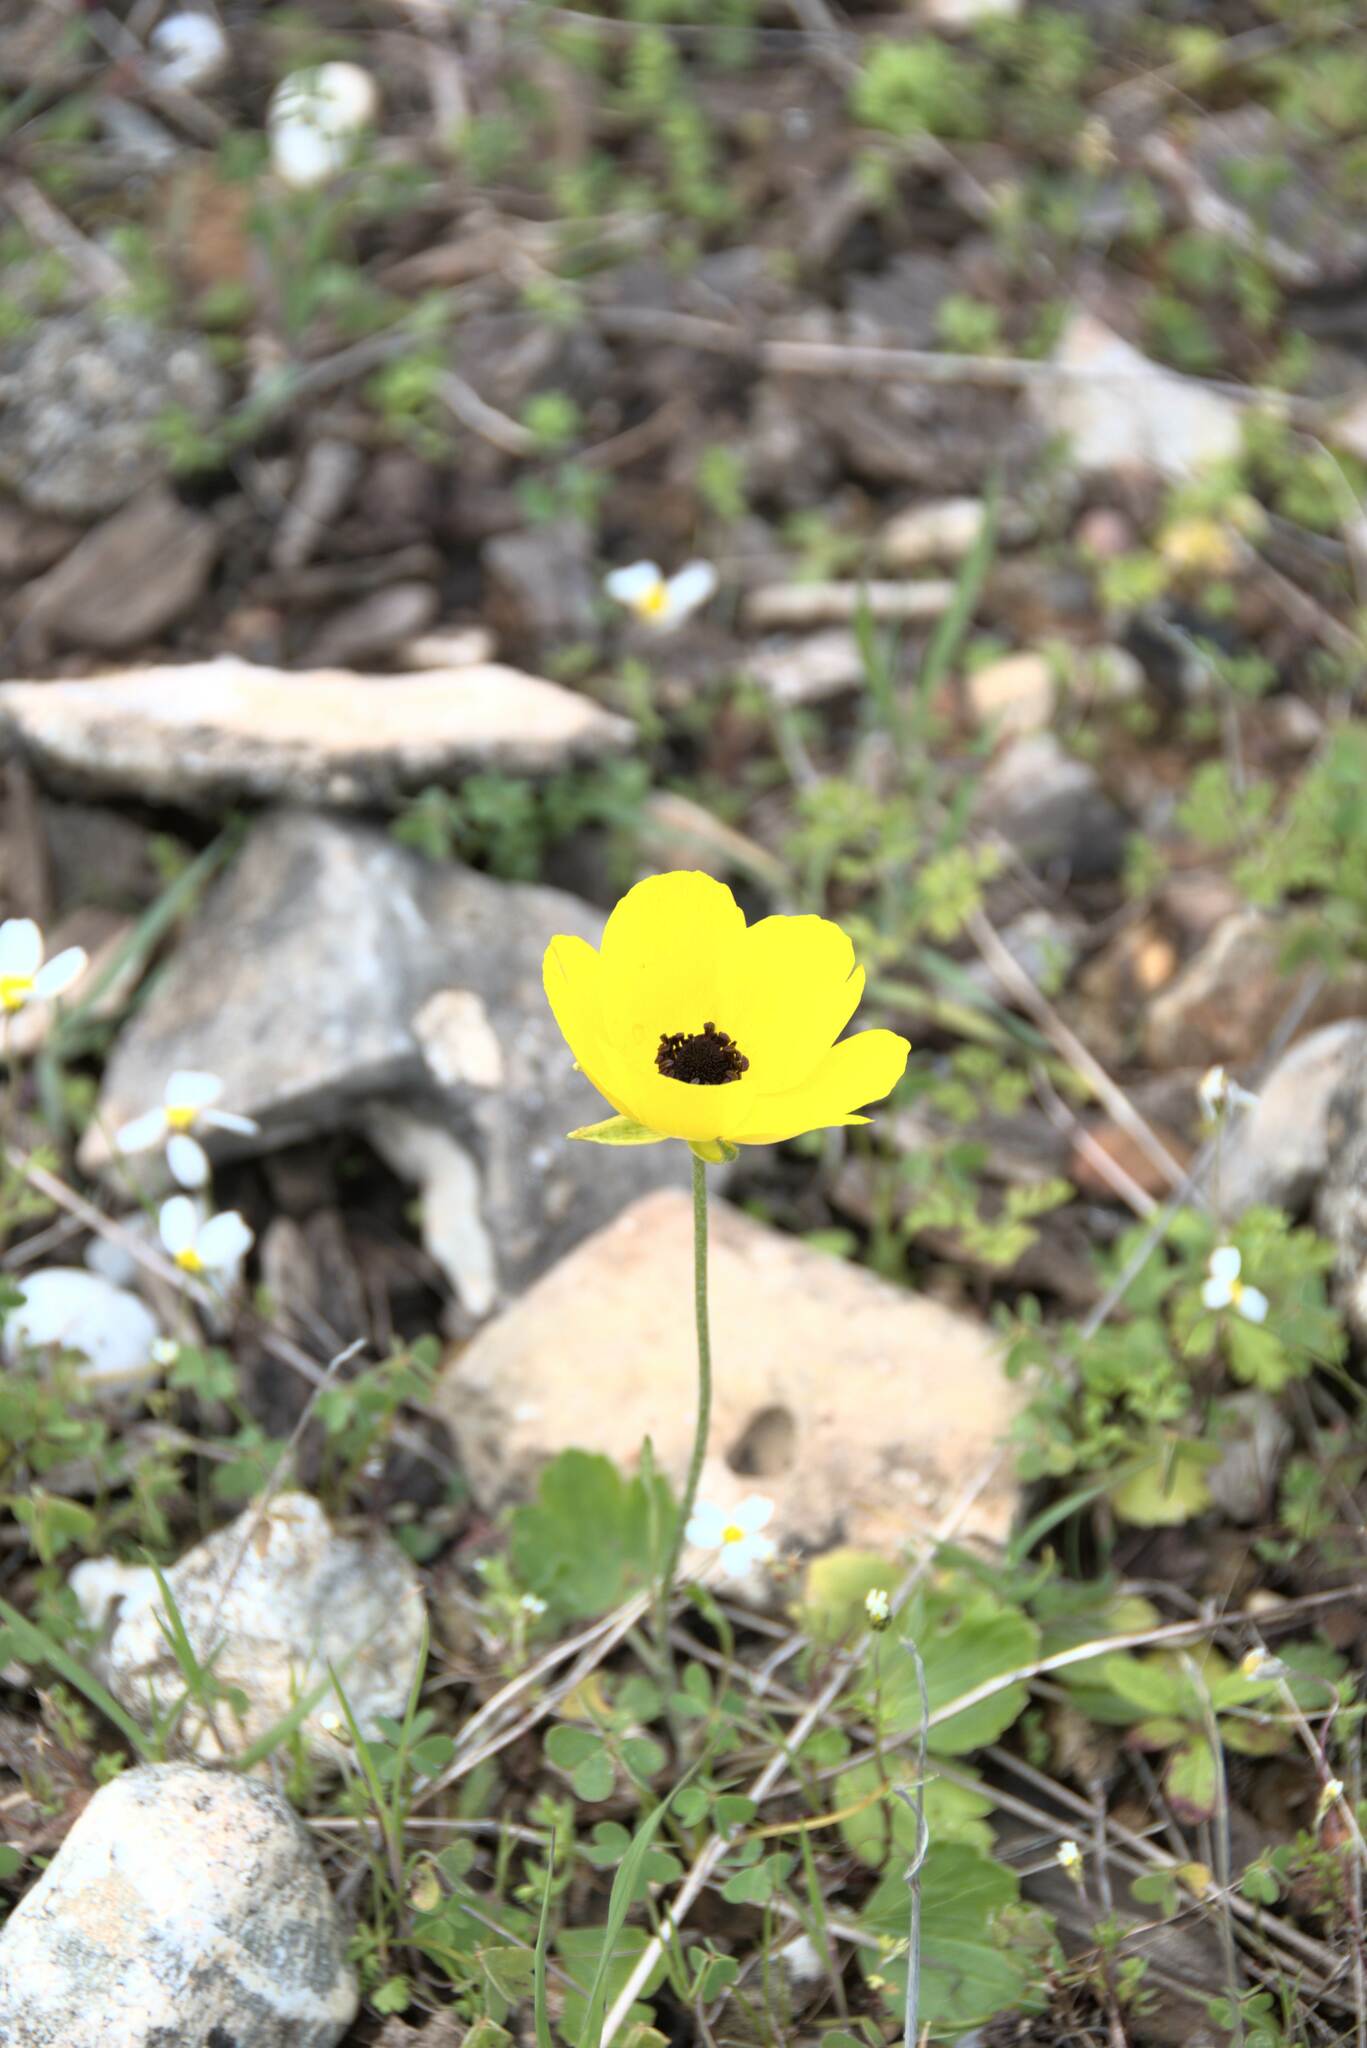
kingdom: Plantae
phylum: Tracheophyta
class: Magnoliopsida
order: Ranunculales
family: Ranunculaceae
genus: Ranunculus
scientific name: Ranunculus asiaticus
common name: Persian buttercup
